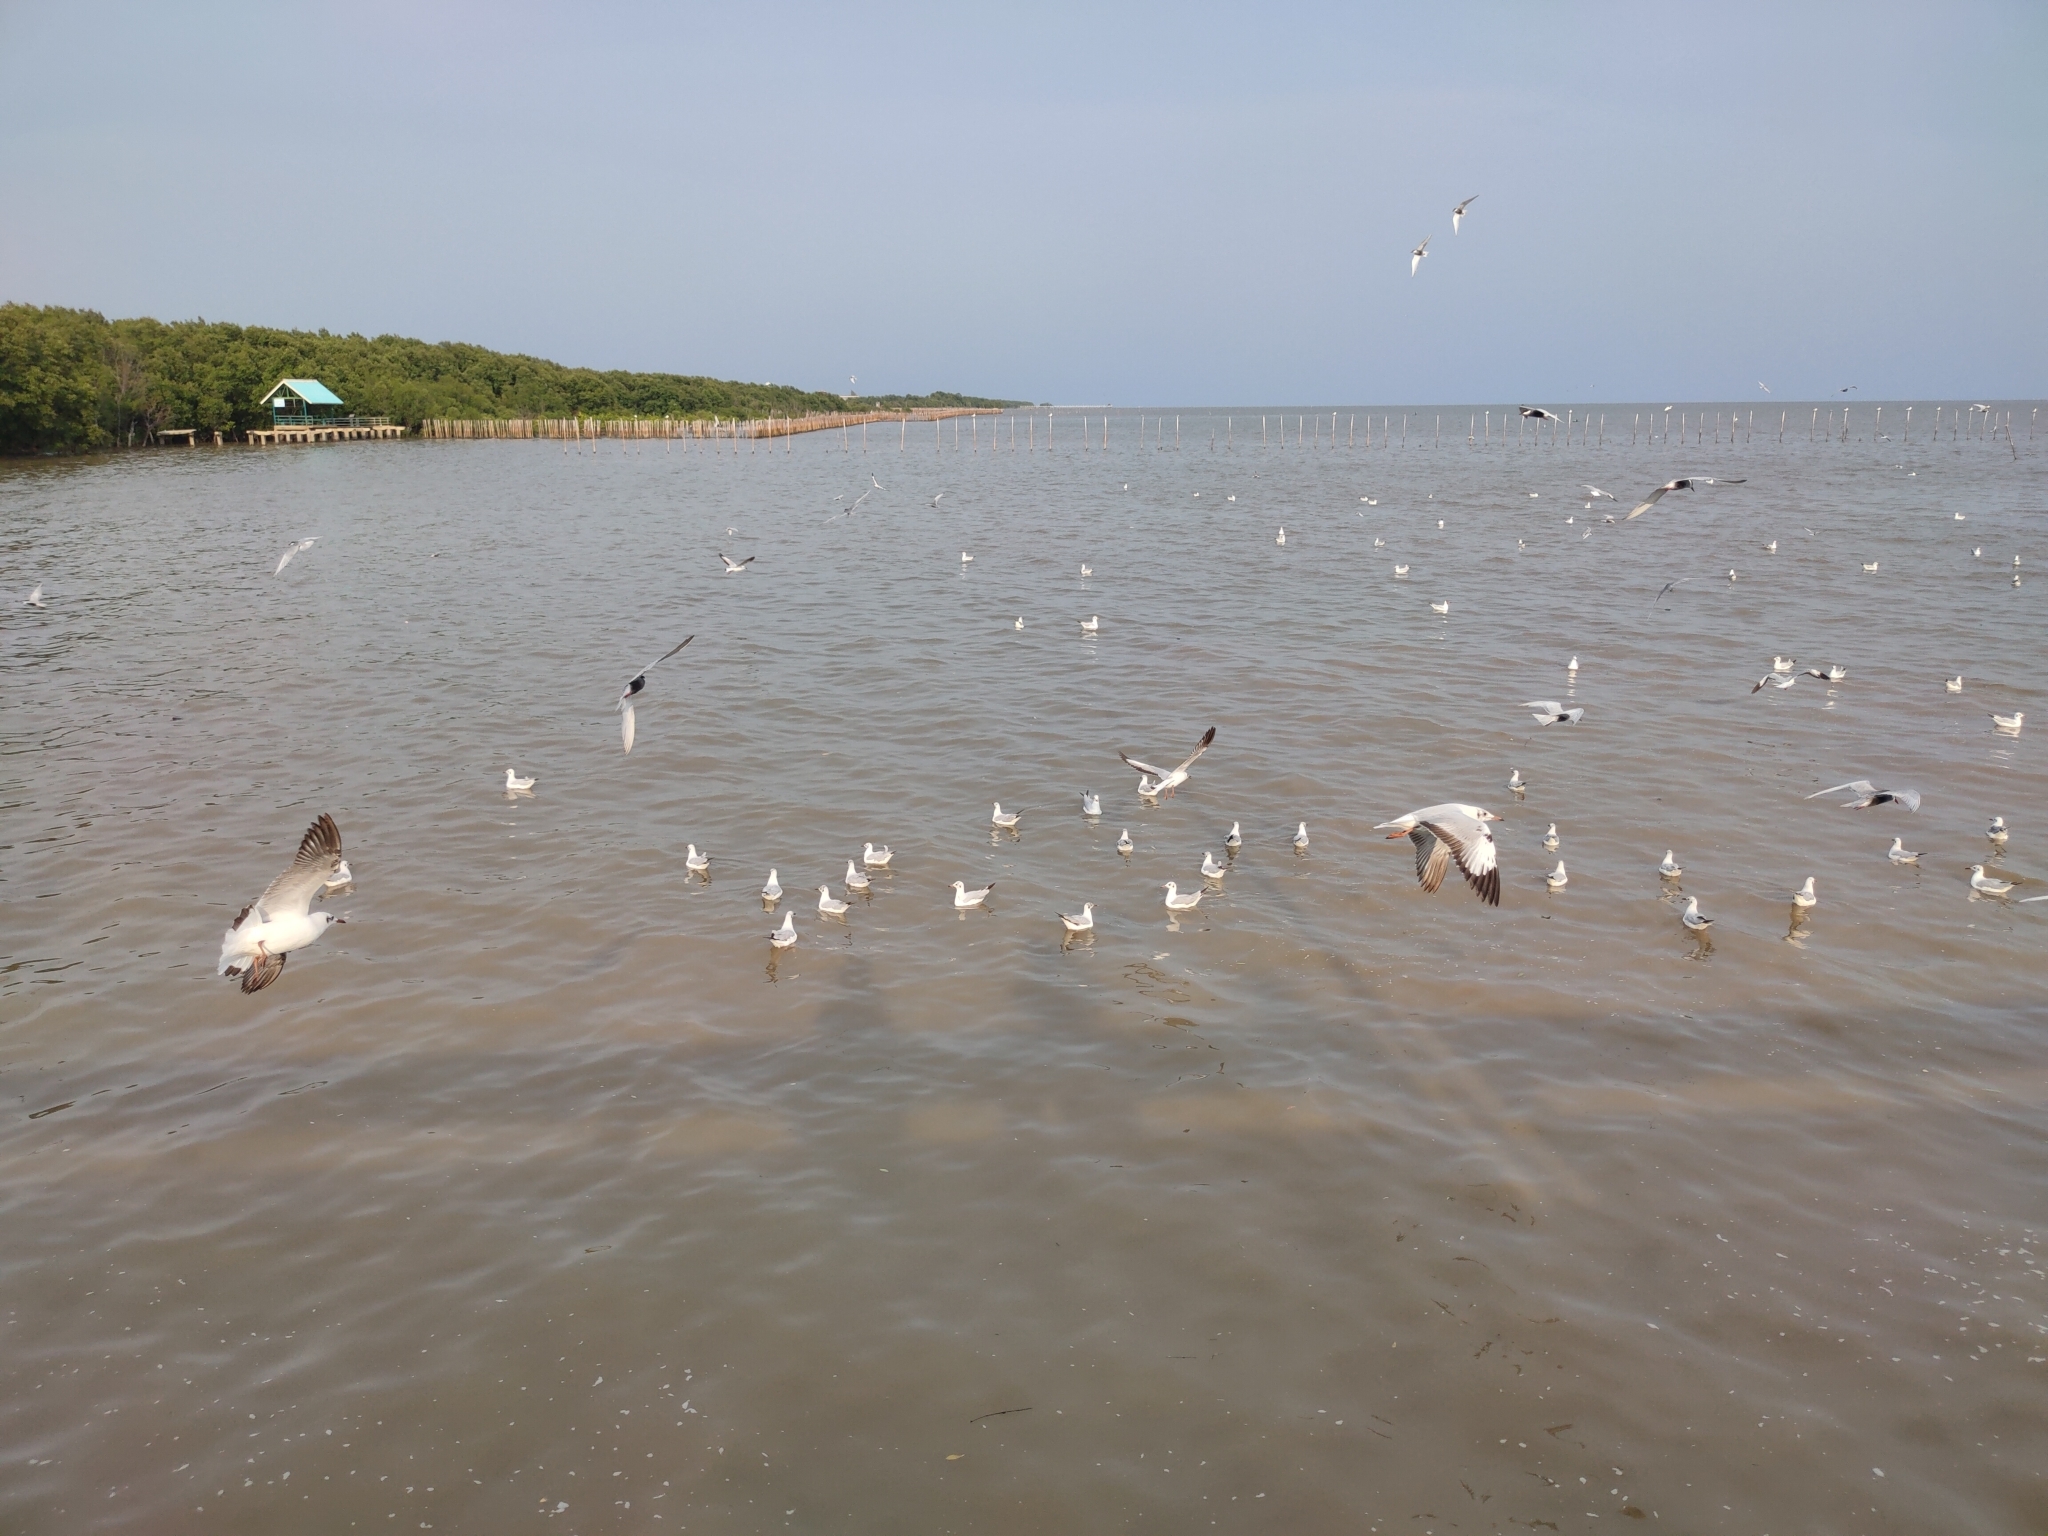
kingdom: Animalia
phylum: Chordata
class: Aves
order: Charadriiformes
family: Laridae
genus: Chroicocephalus
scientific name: Chroicocephalus brunnicephalus
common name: Brown-headed gull
